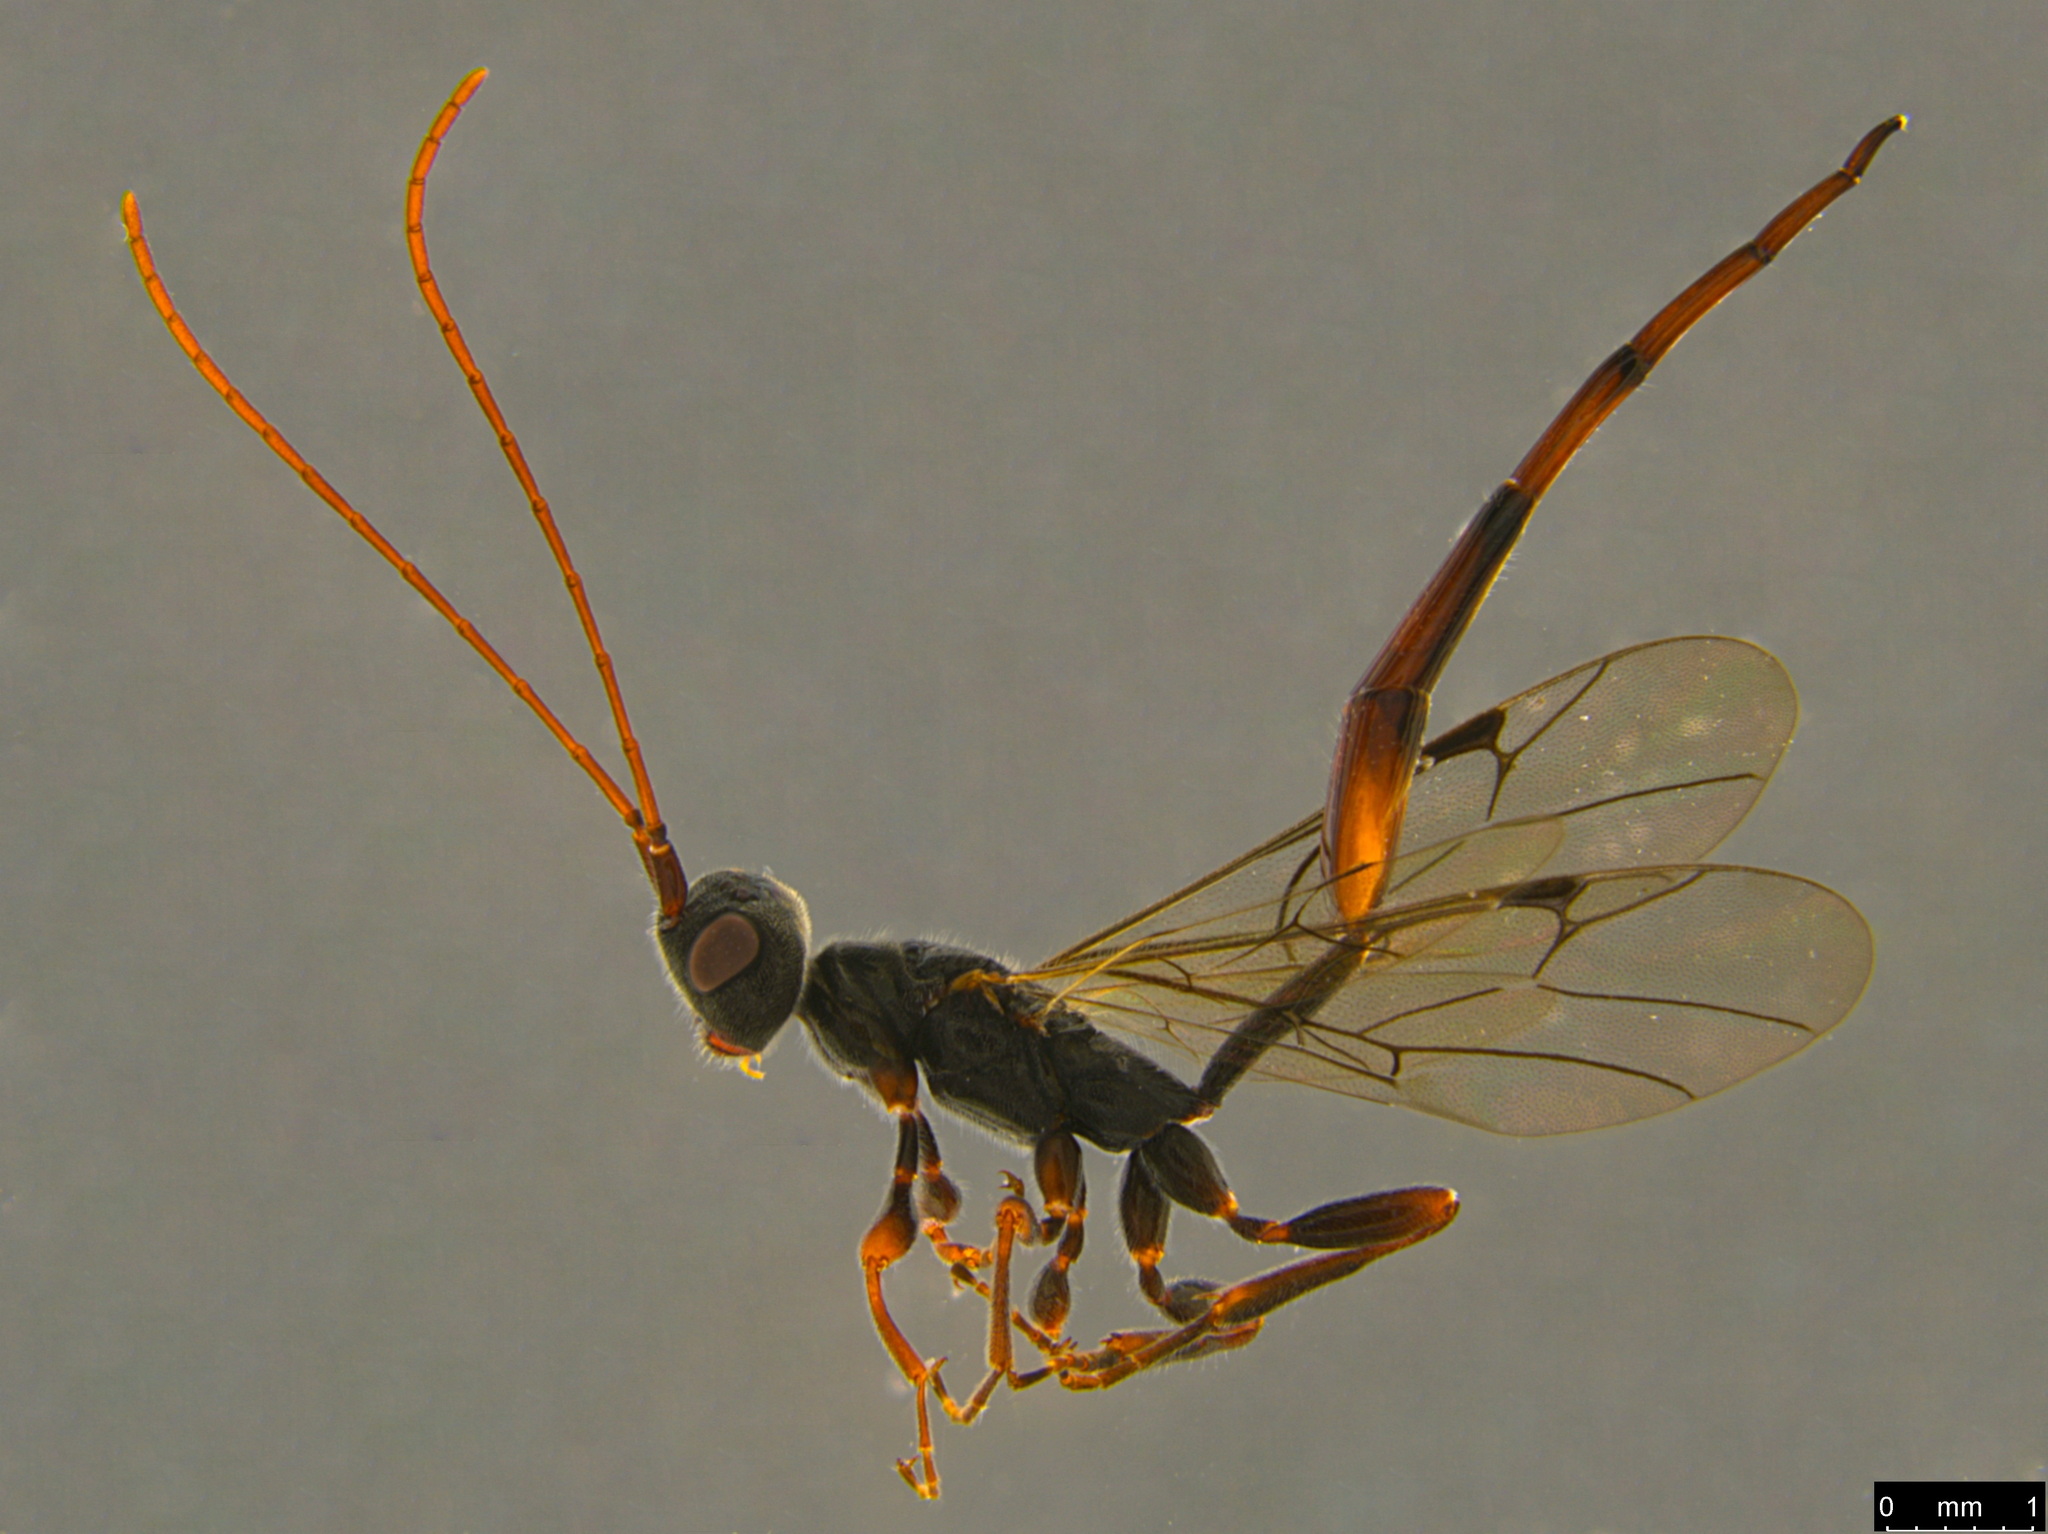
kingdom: Animalia
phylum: Arthropoda
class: Insecta
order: Hymenoptera
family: Monomachidae
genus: Monomachus
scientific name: Monomachus antipodalis
